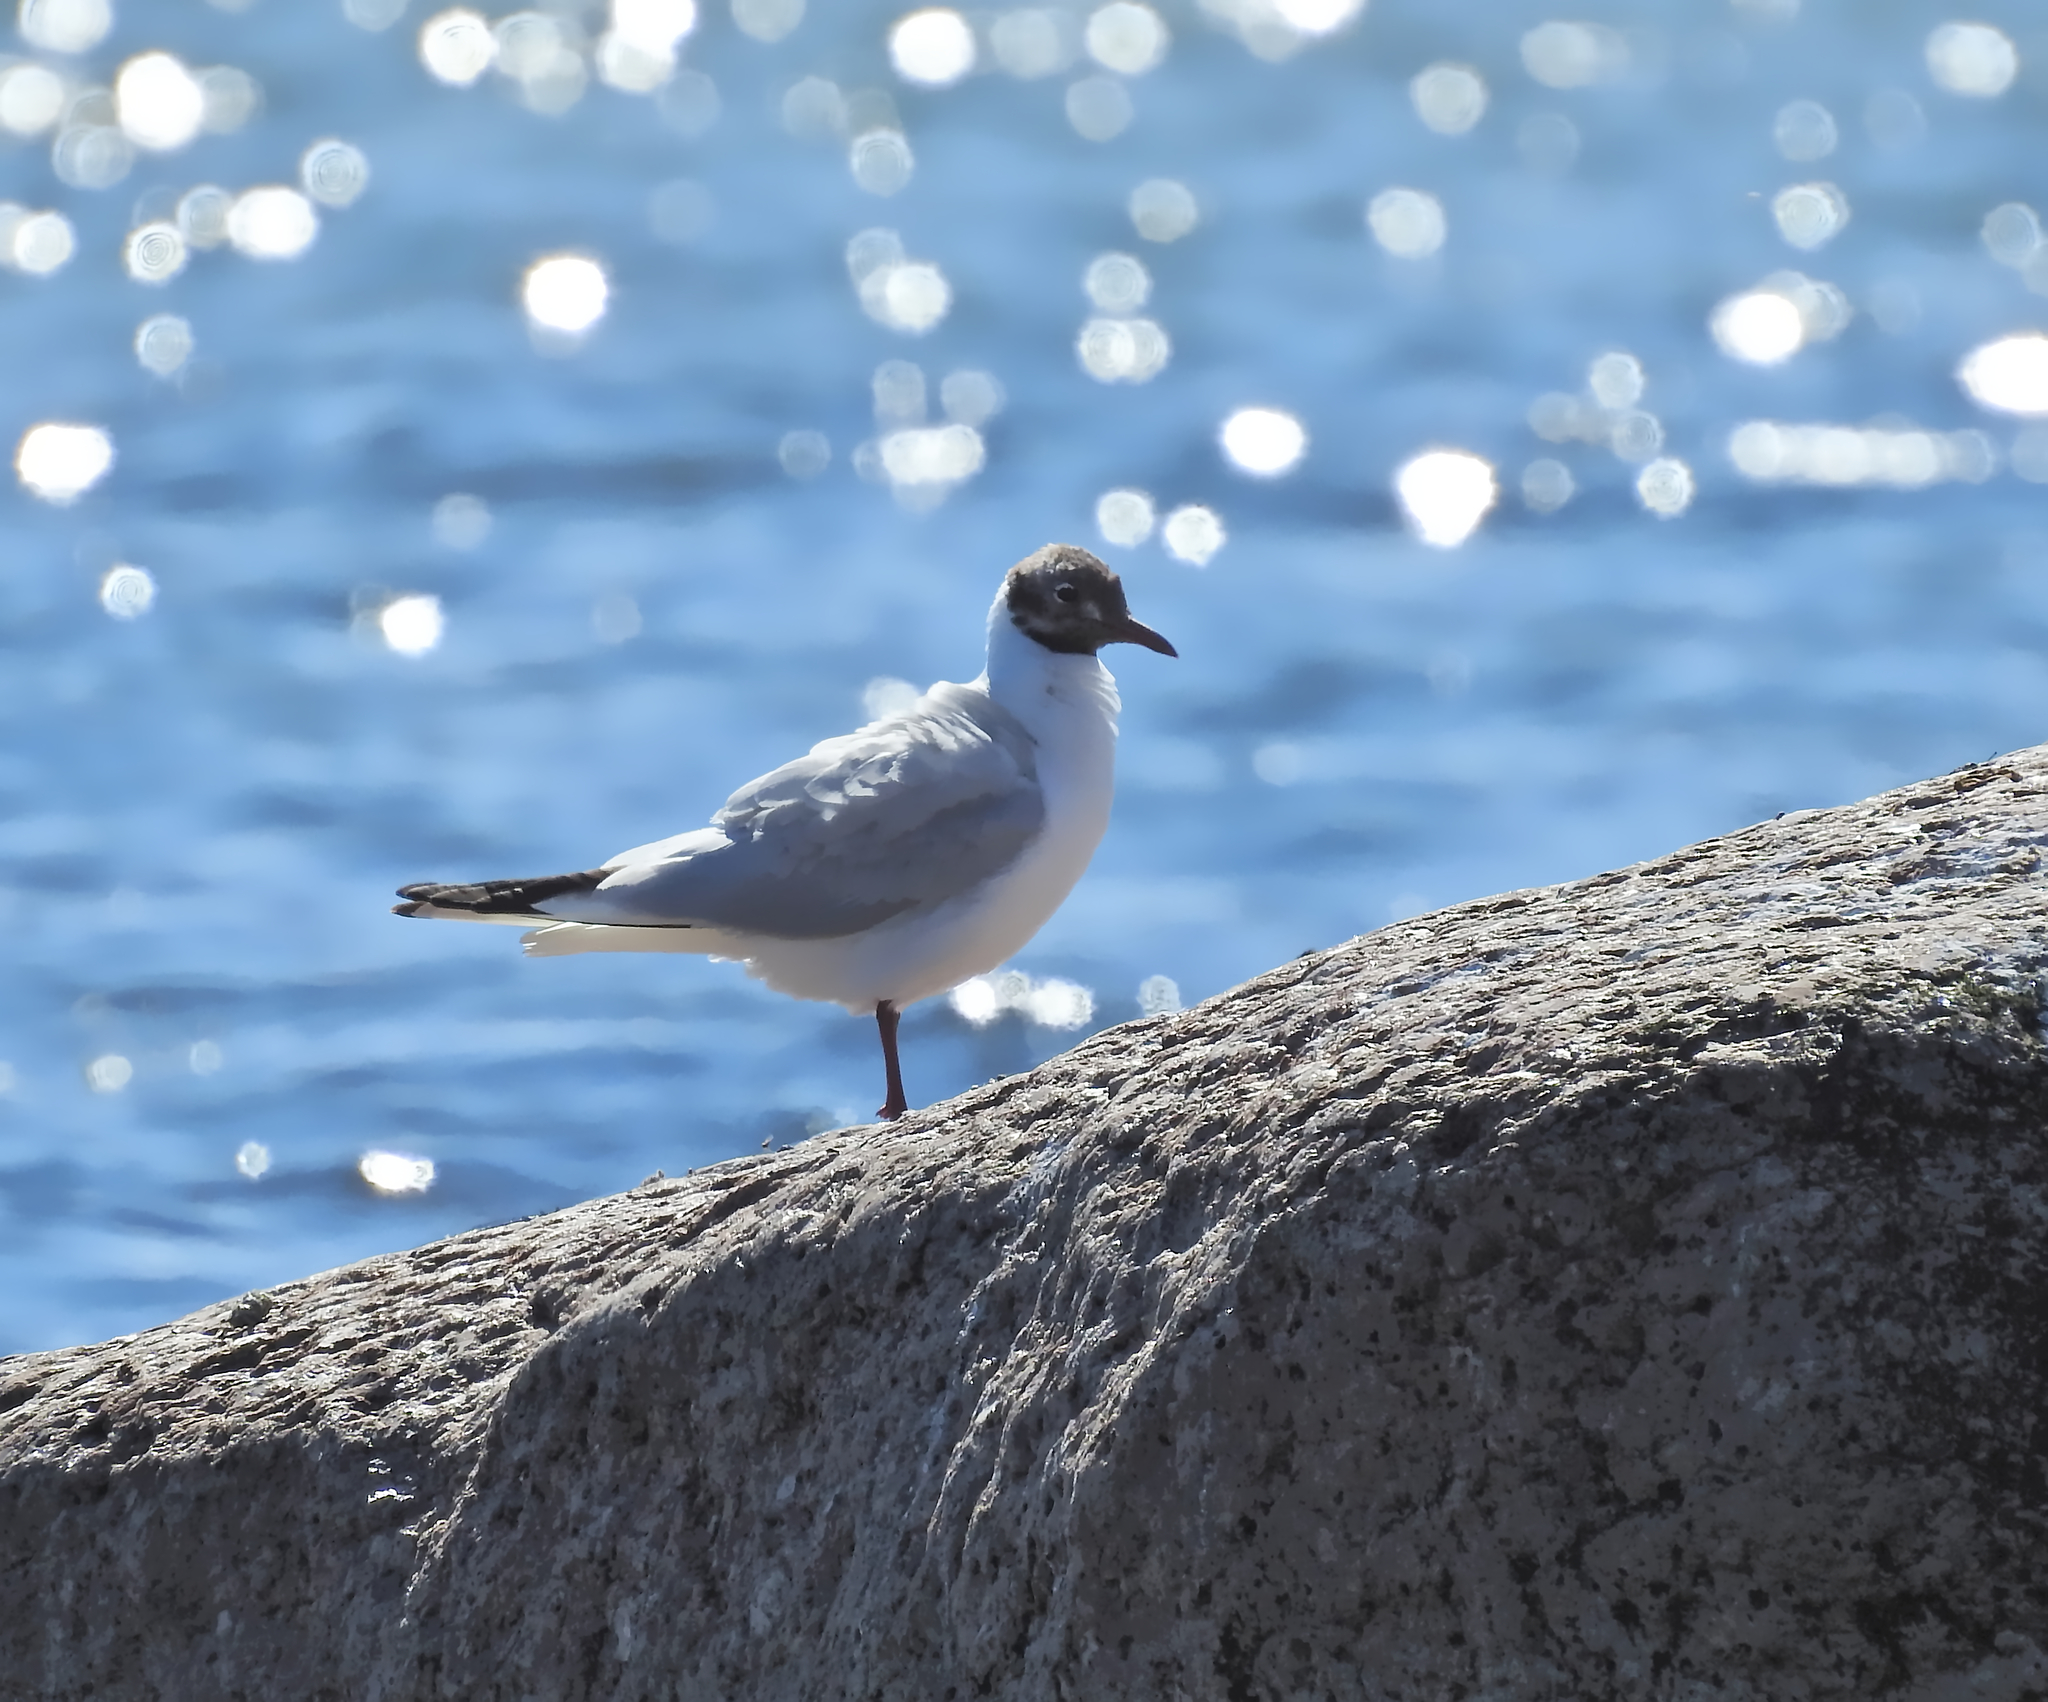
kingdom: Animalia
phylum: Chordata
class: Aves
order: Charadriiformes
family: Laridae
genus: Chroicocephalus
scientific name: Chroicocephalus ridibundus
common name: Black-headed gull
